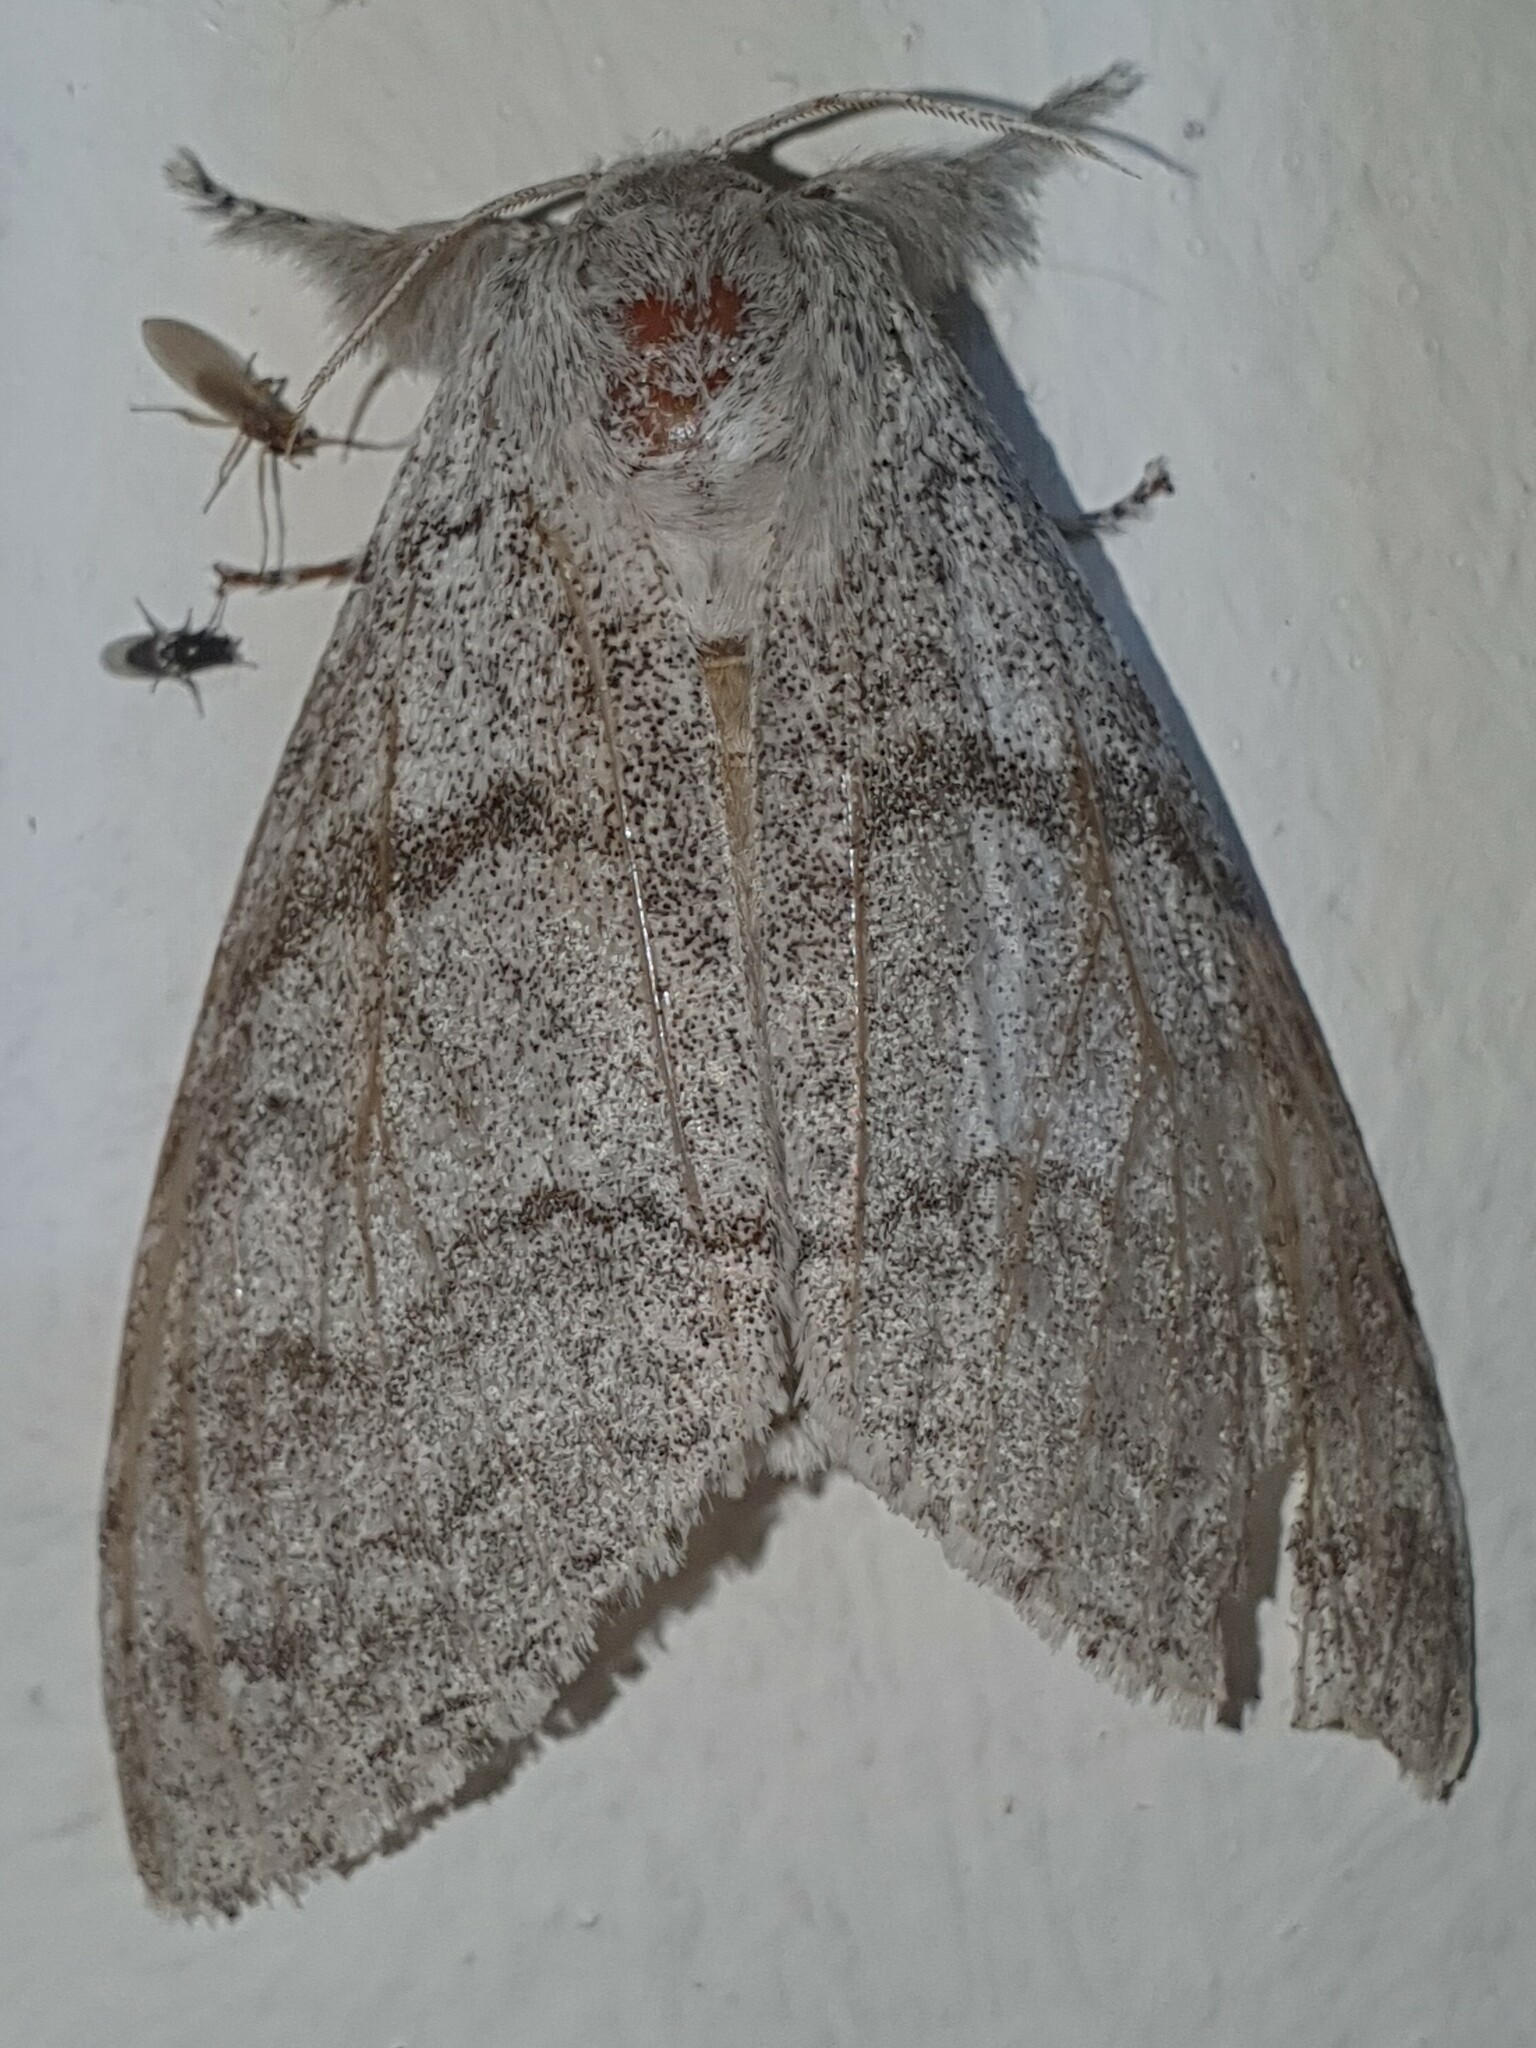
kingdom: Animalia
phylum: Arthropoda
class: Insecta
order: Lepidoptera
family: Erebidae
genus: Calliteara
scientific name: Calliteara pudibunda
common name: Pale tussock
